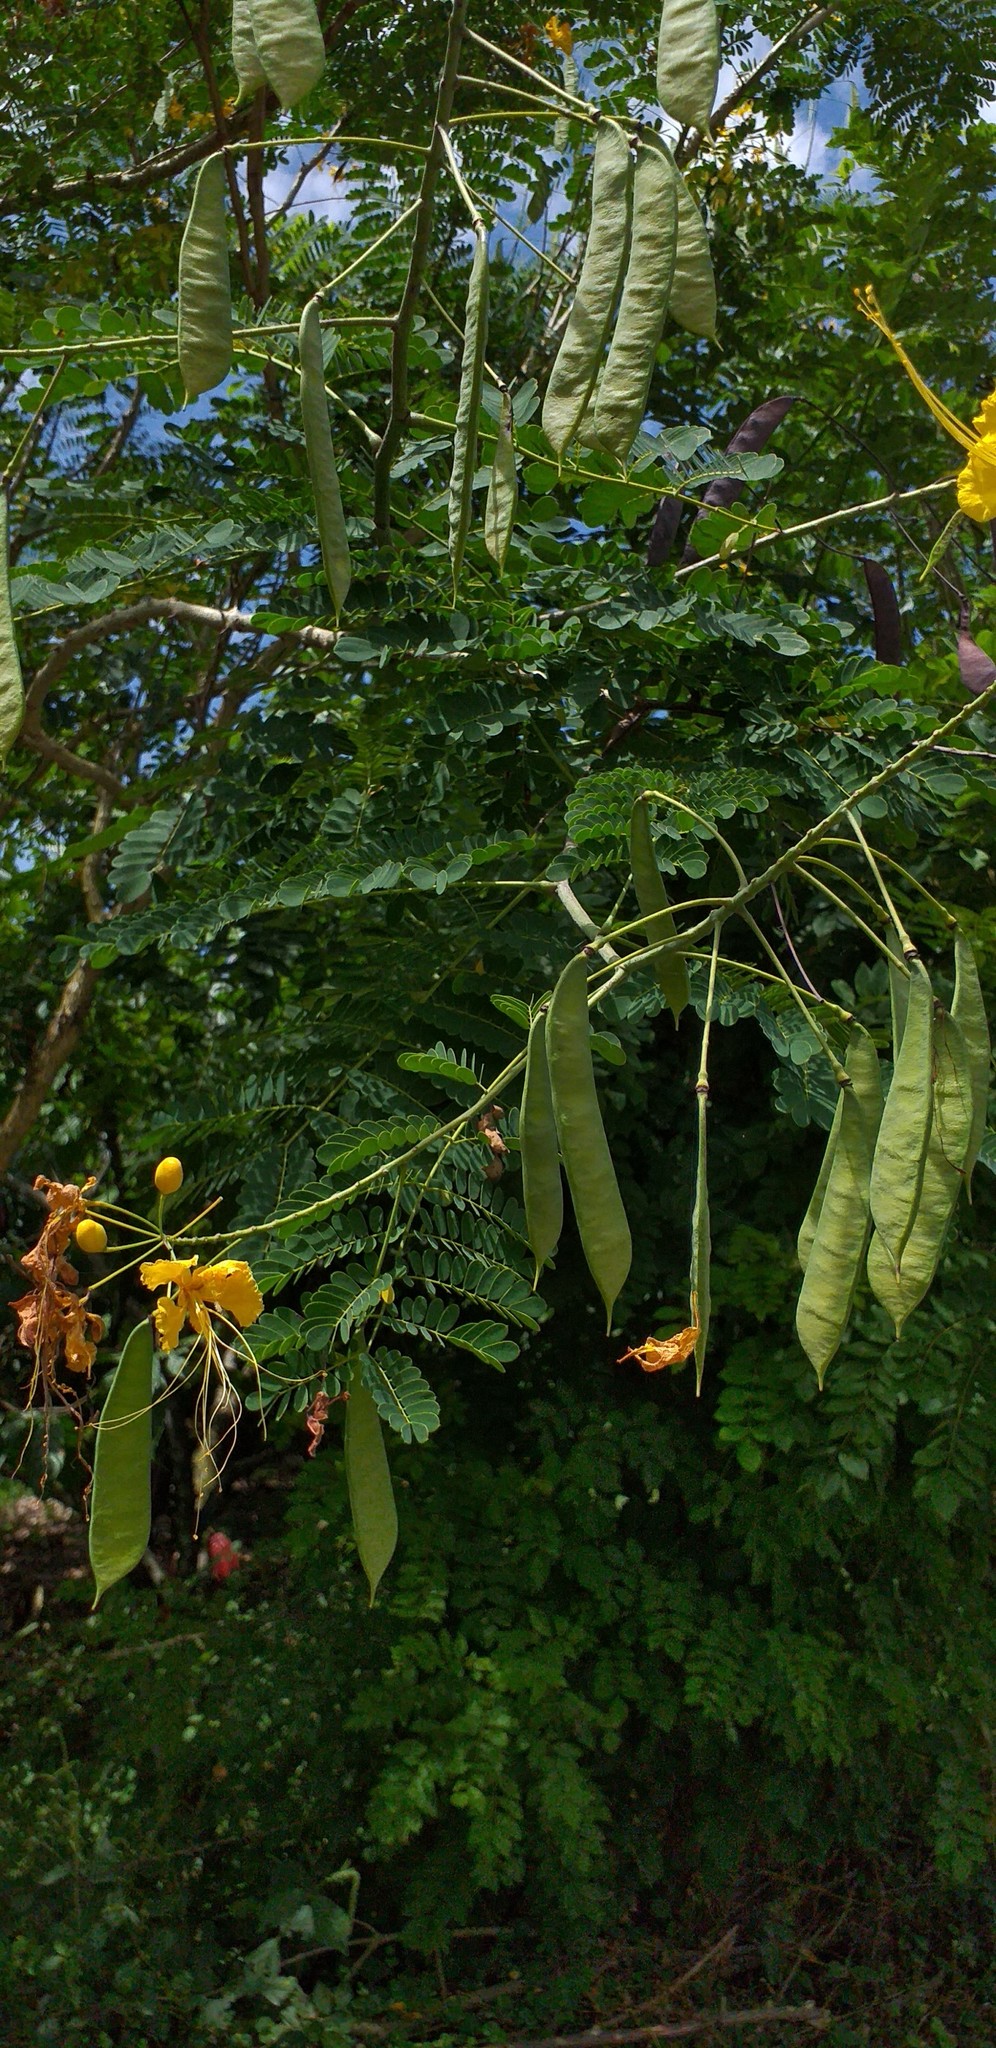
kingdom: Plantae
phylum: Tracheophyta
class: Magnoliopsida
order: Fabales
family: Fabaceae
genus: Caesalpinia
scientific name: Caesalpinia pulcherrima
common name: Pride-of-barbados
